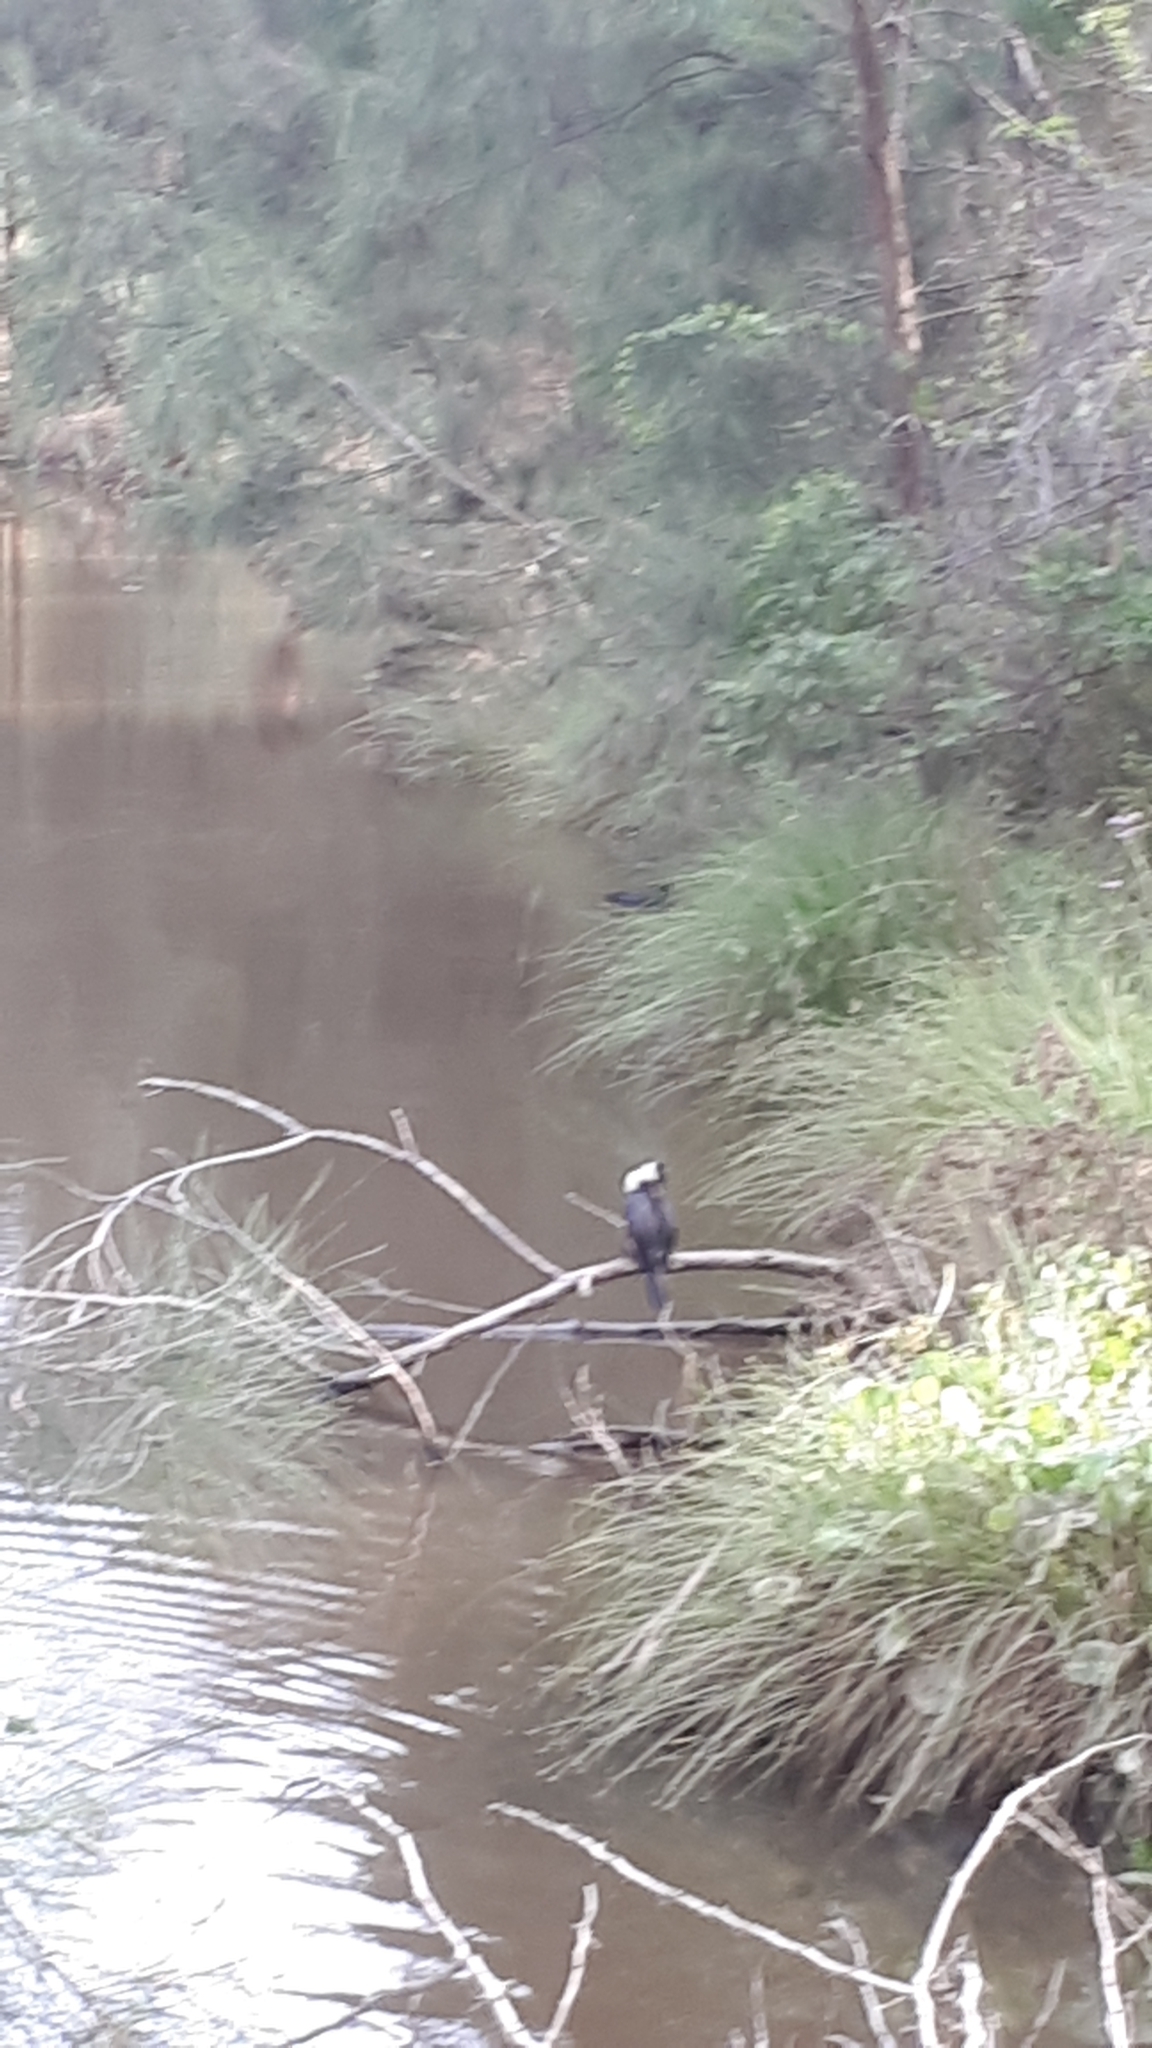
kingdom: Animalia
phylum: Chordata
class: Aves
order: Suliformes
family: Phalacrocoracidae
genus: Microcarbo
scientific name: Microcarbo melanoleucos
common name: Little pied cormorant
